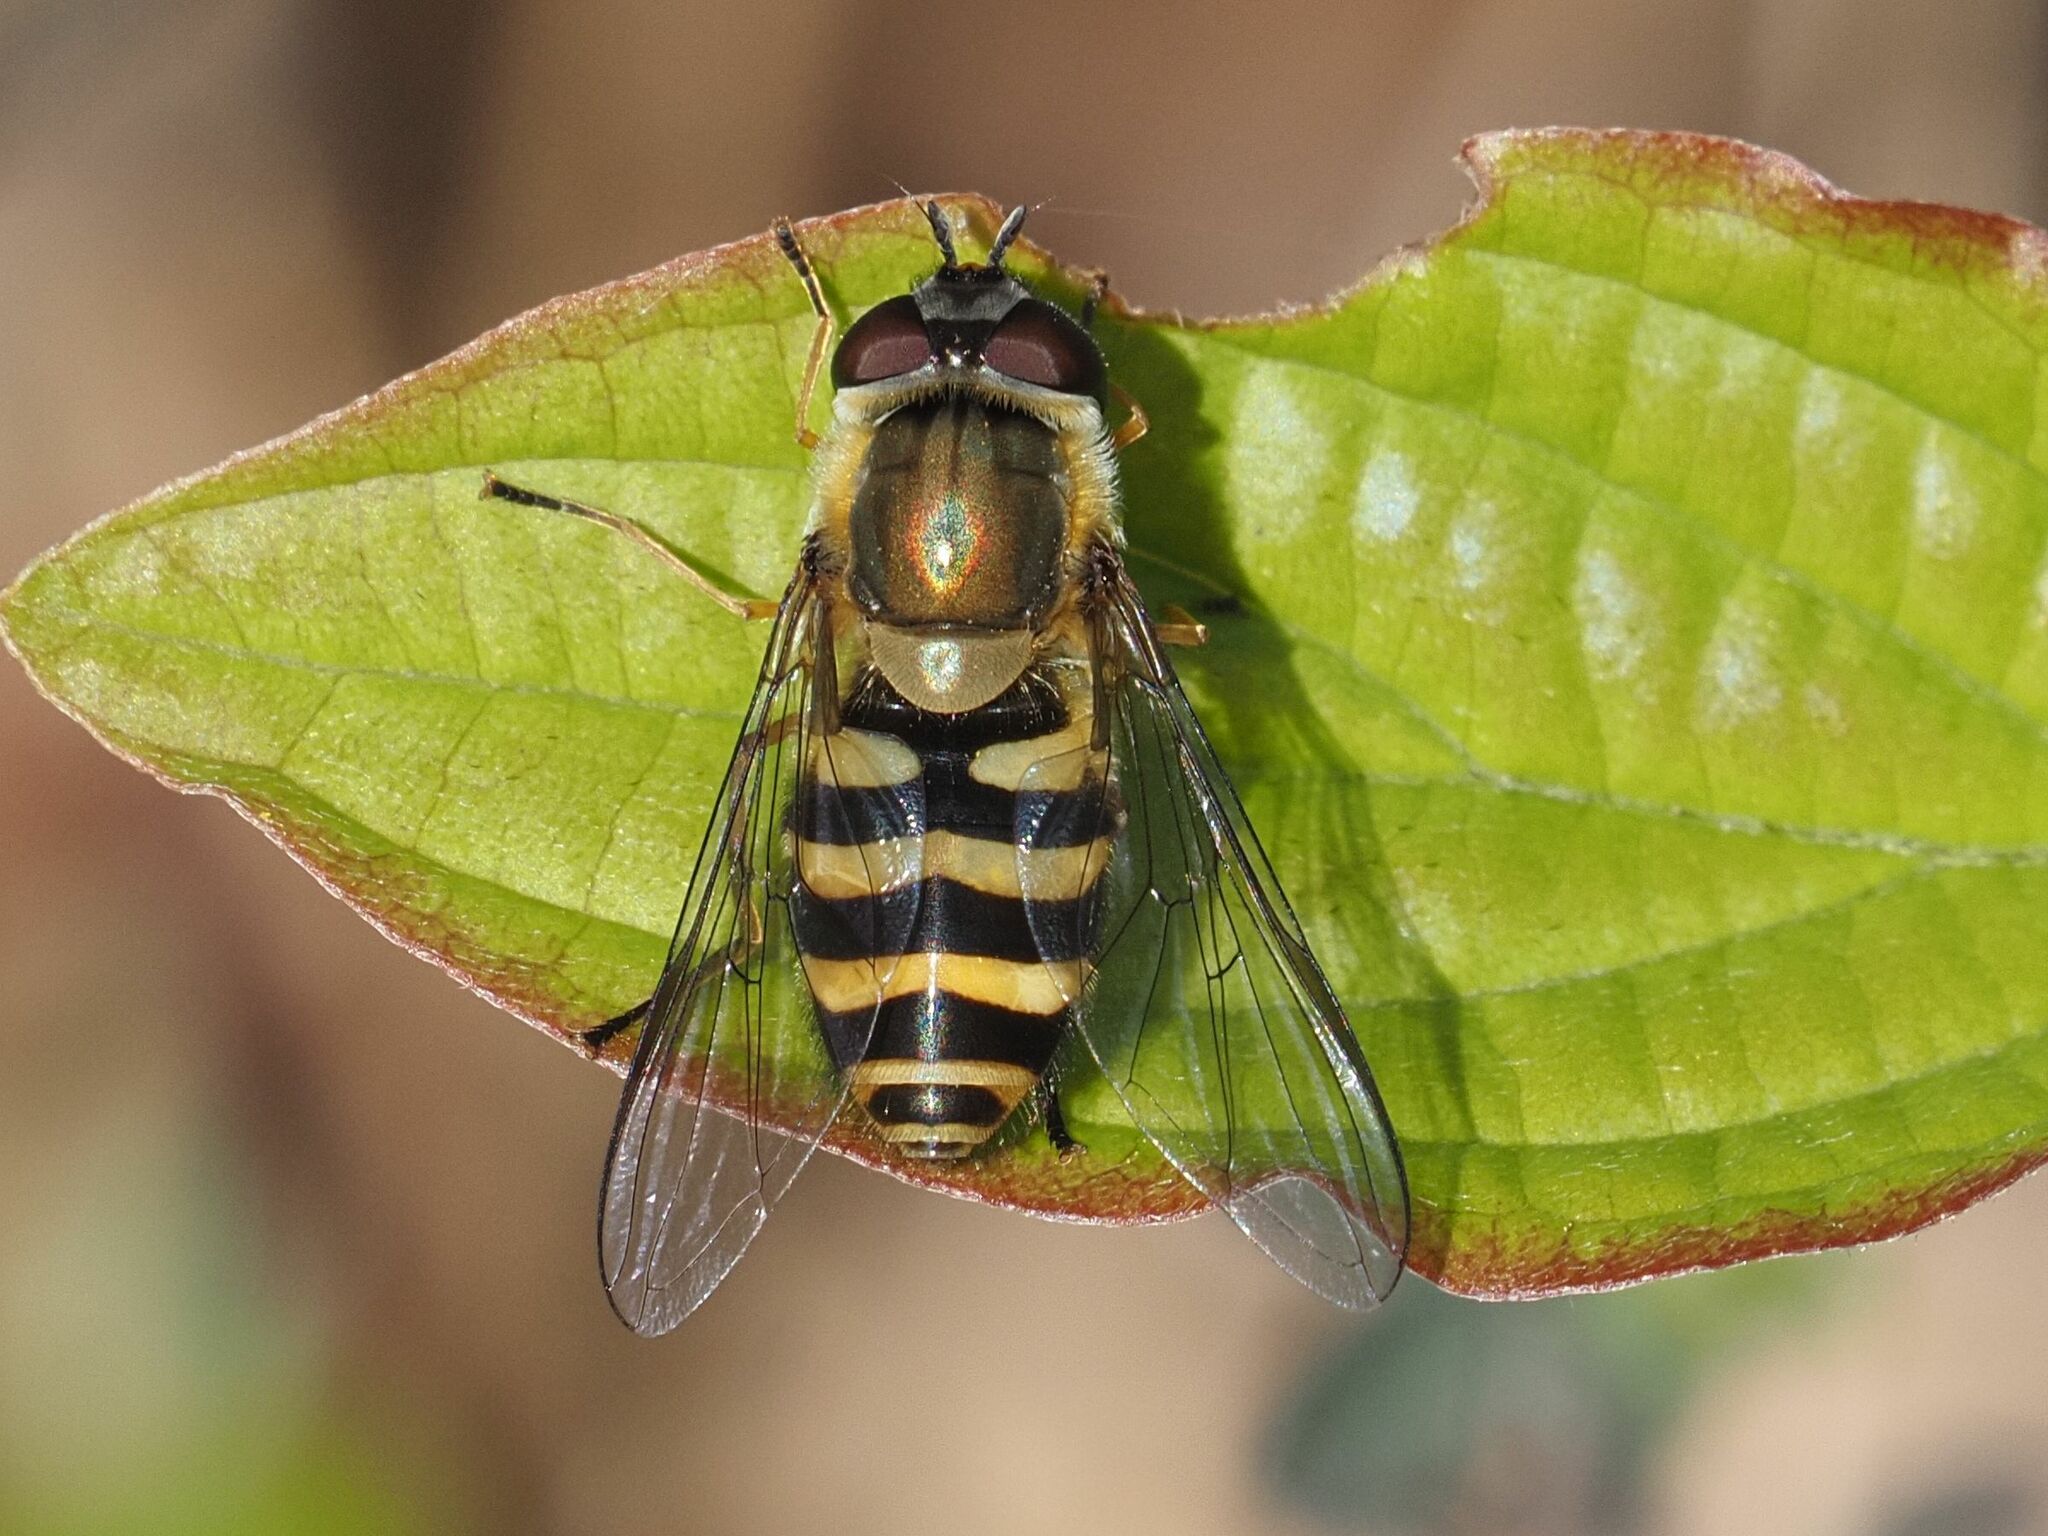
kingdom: Animalia
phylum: Arthropoda
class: Insecta
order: Diptera
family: Syrphidae
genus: Syrphus
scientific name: Syrphus torvus
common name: Hairy-eyed flower fly
